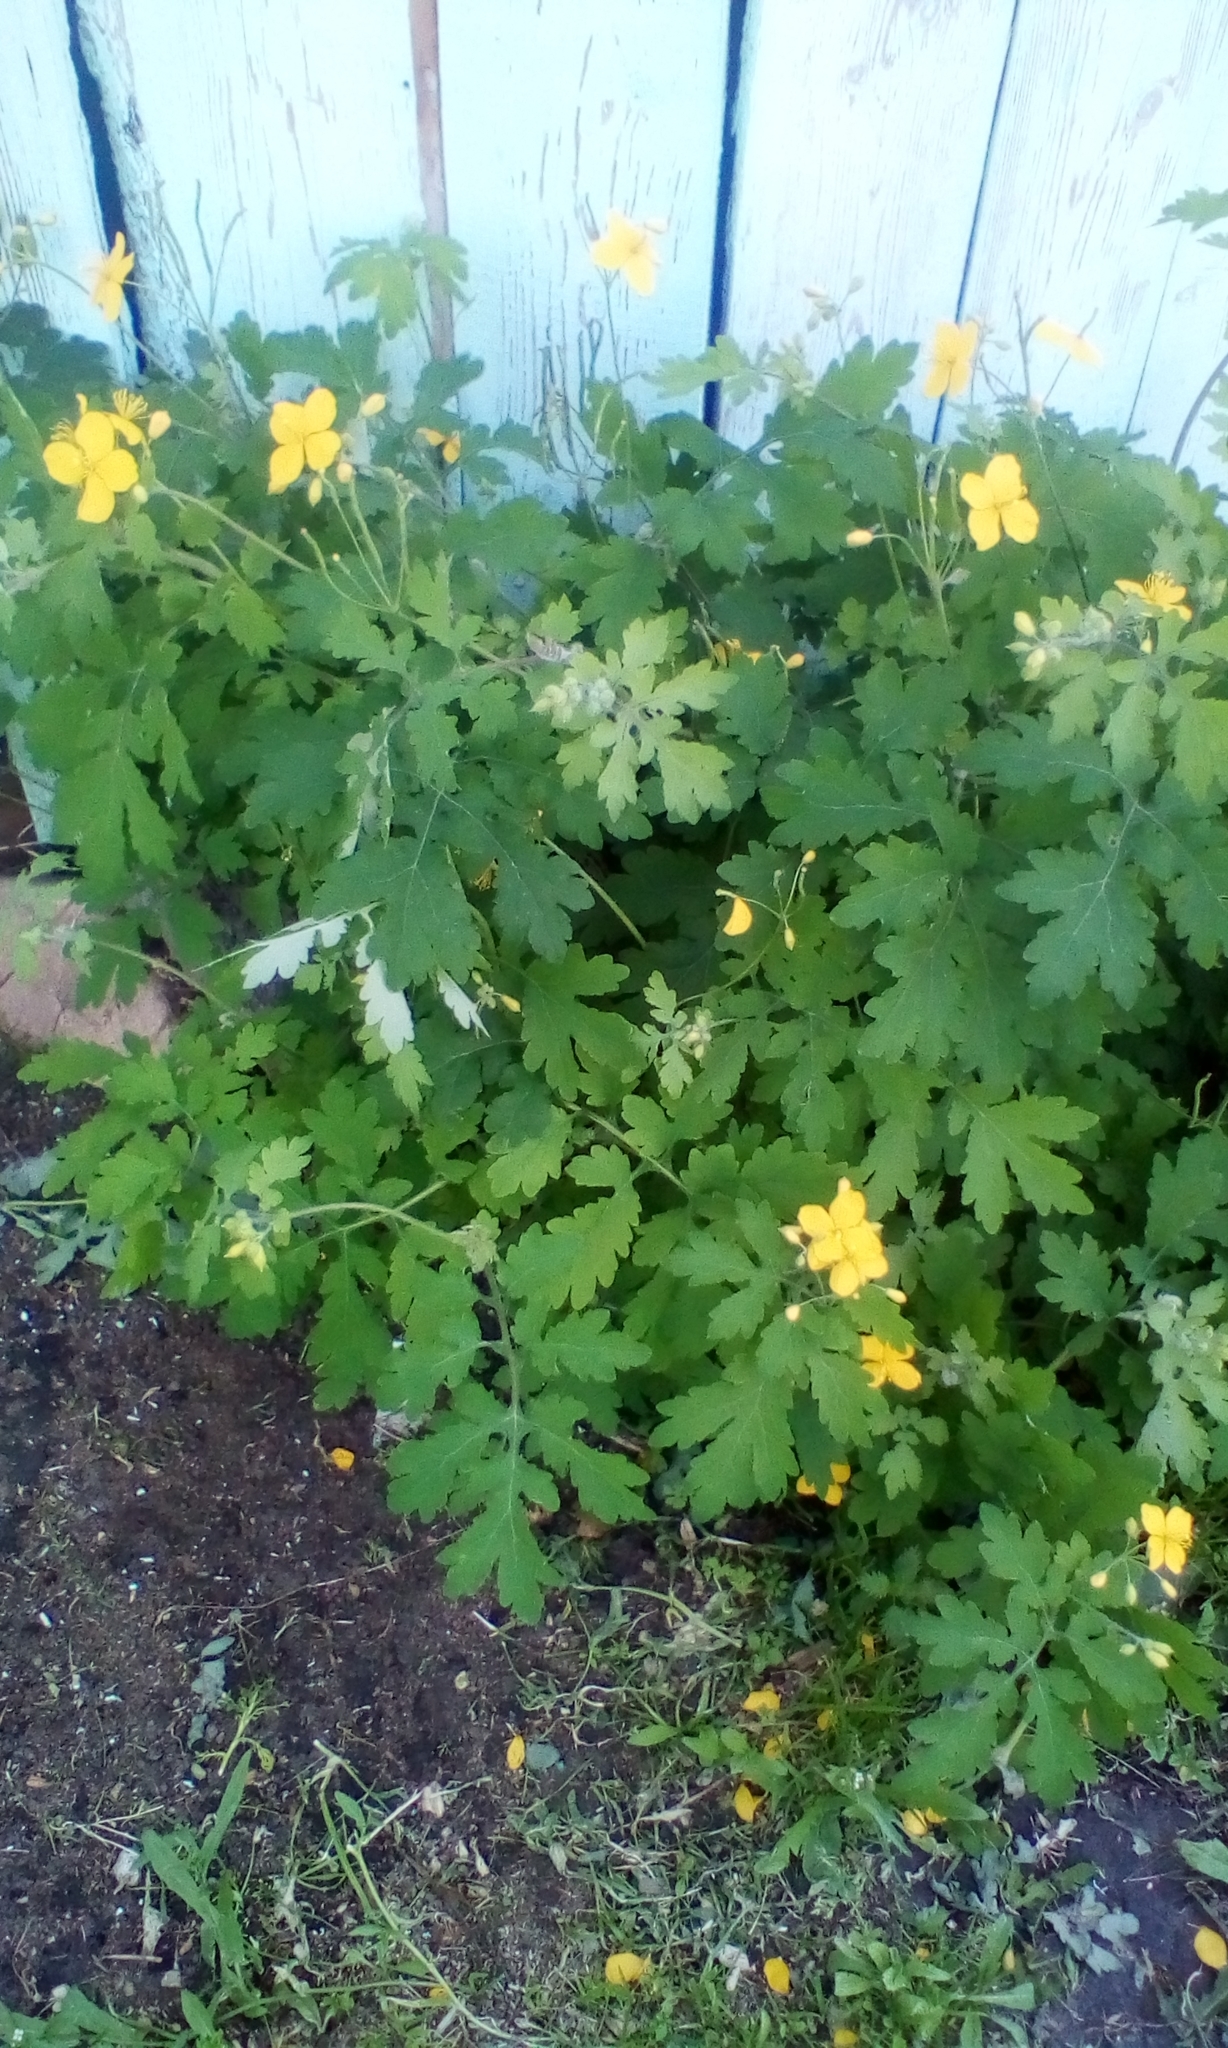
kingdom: Plantae
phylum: Tracheophyta
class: Magnoliopsida
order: Ranunculales
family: Papaveraceae
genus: Chelidonium
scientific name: Chelidonium majus
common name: Greater celandine
